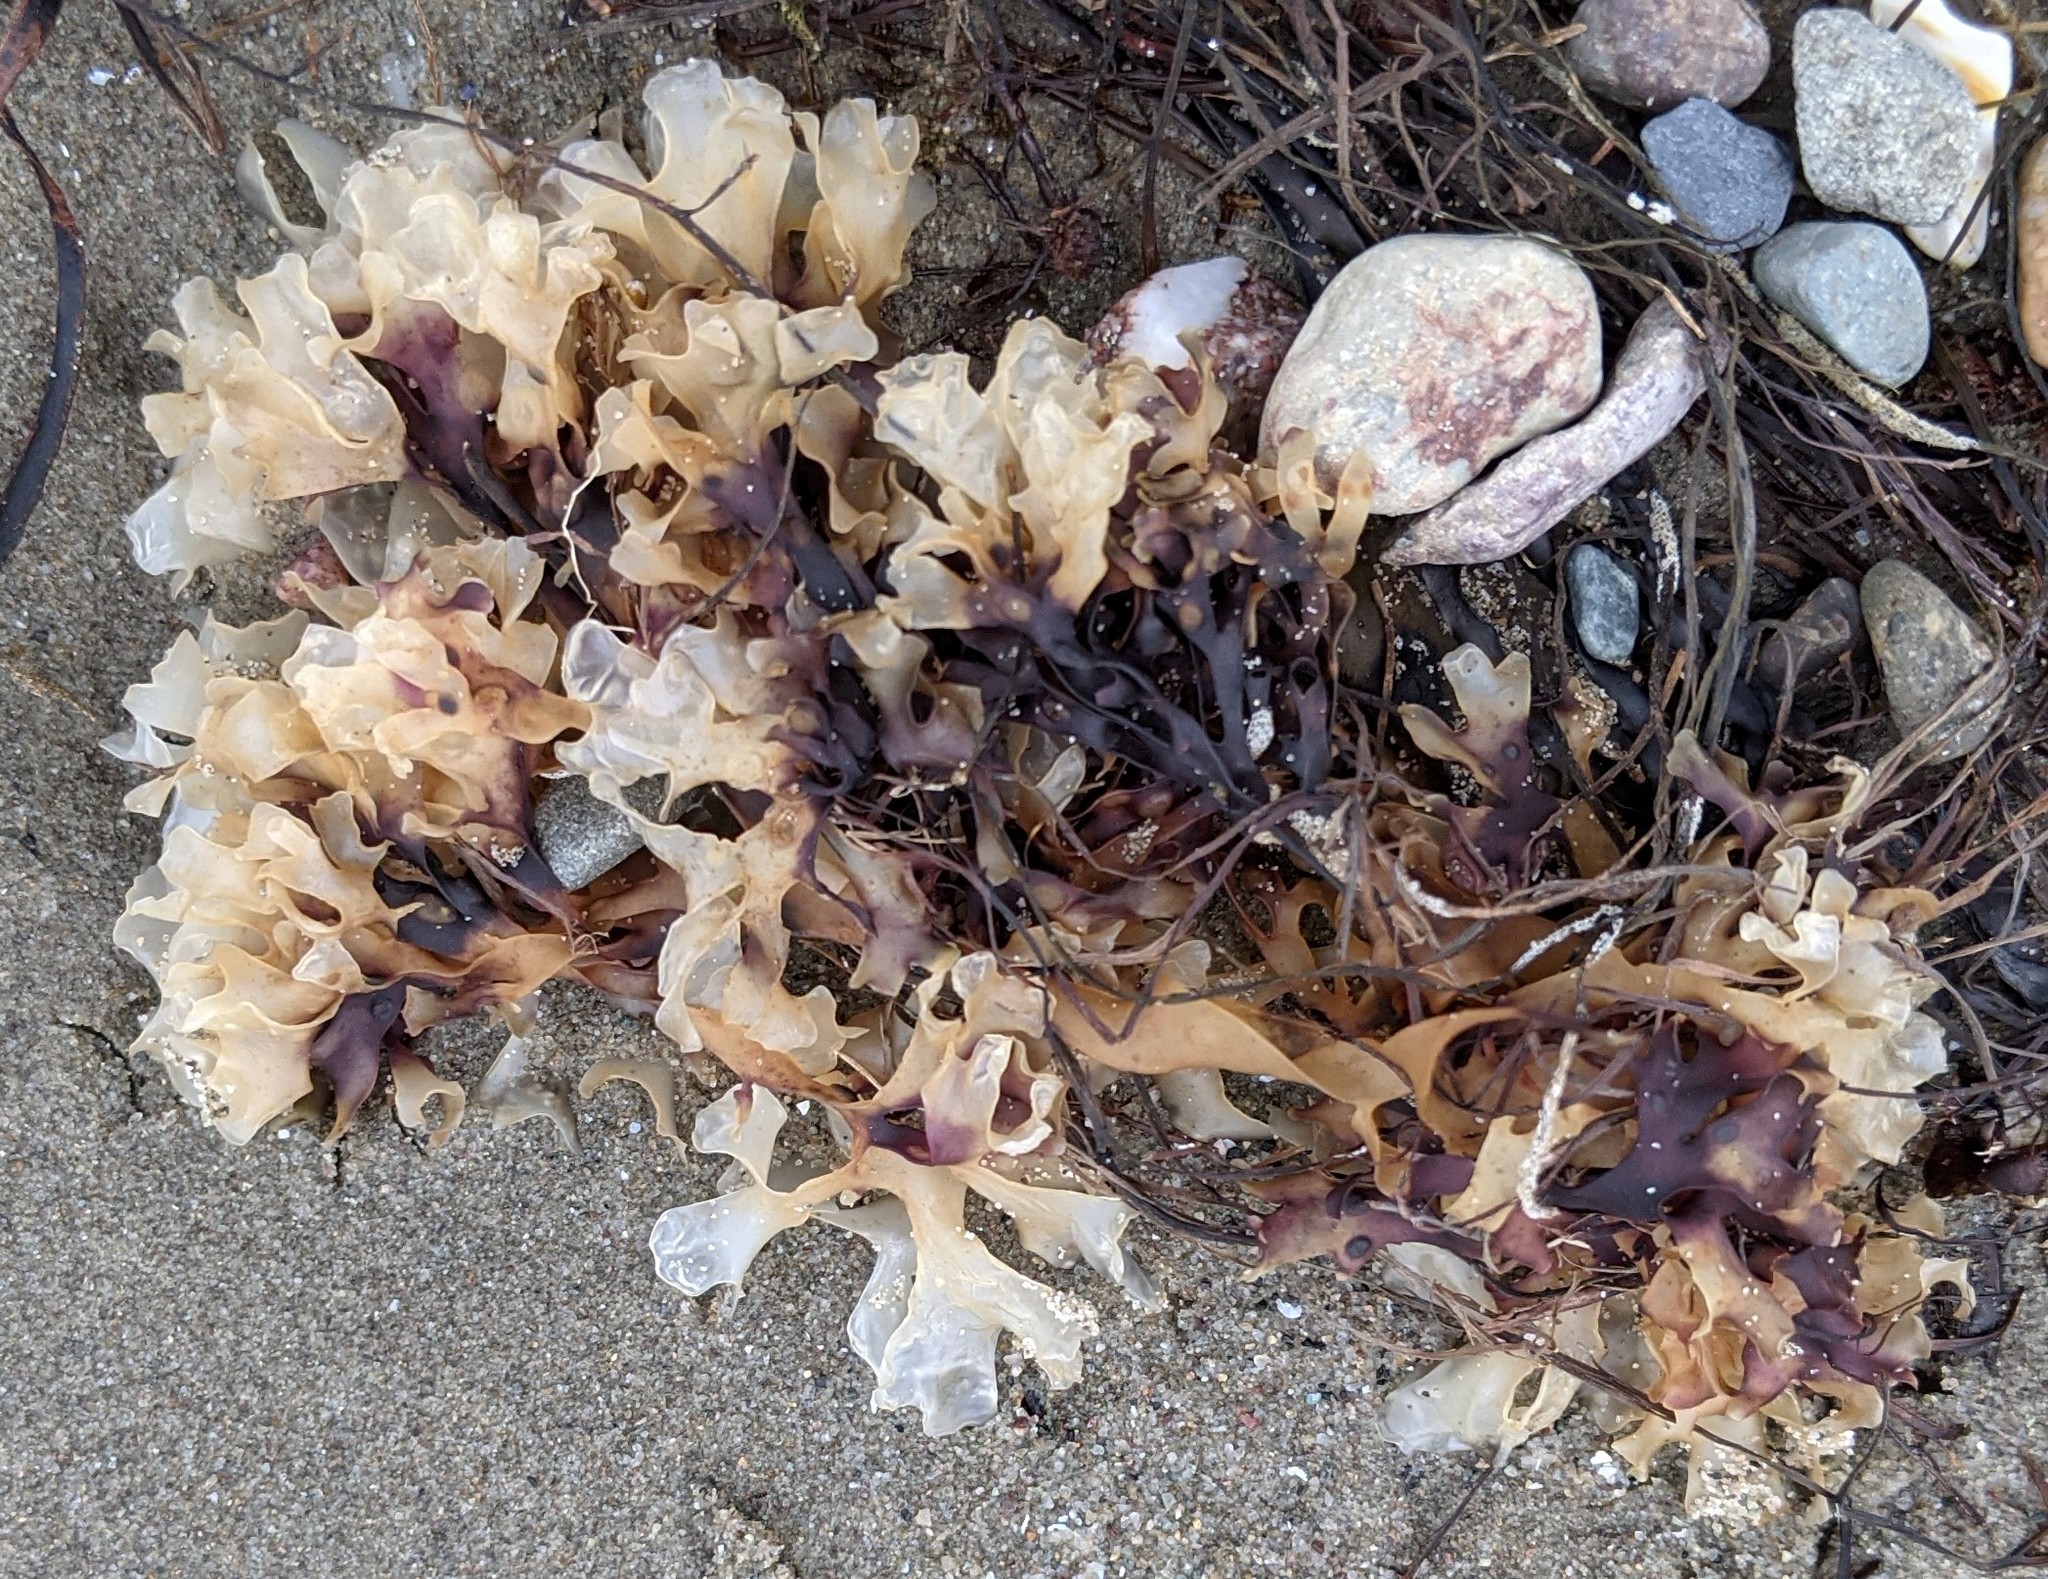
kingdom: Plantae
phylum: Rhodophyta
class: Florideophyceae
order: Gigartinales
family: Gigartinaceae
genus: Chondrus
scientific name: Chondrus crispus
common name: Carrageen
